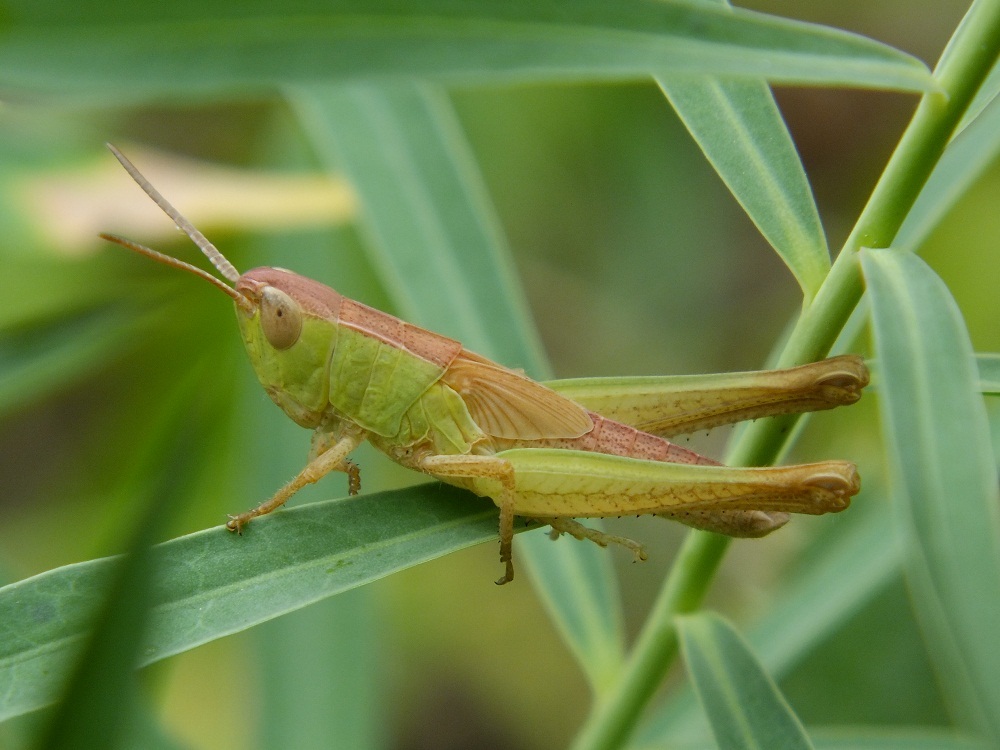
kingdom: Animalia
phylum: Arthropoda
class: Insecta
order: Orthoptera
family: Acrididae
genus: Chorthippus
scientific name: Chorthippus dichrous
